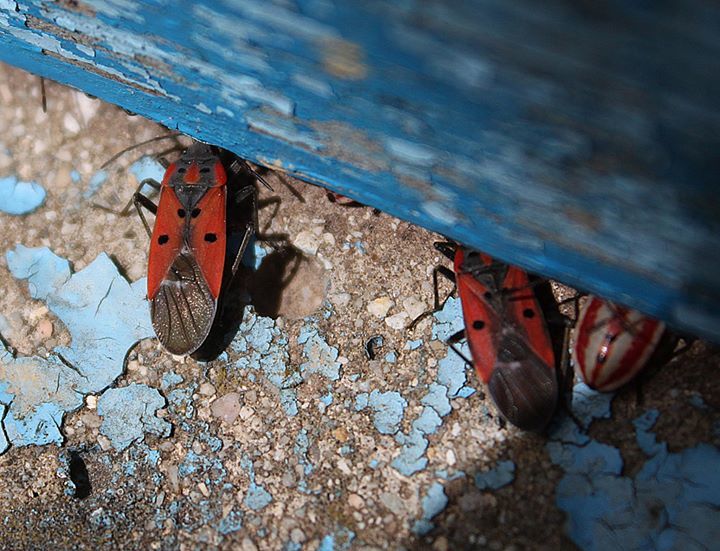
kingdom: Animalia
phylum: Arthropoda
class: Insecta
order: Hemiptera
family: Lygaeidae
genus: Lygaeus
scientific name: Lygaeus creticus
